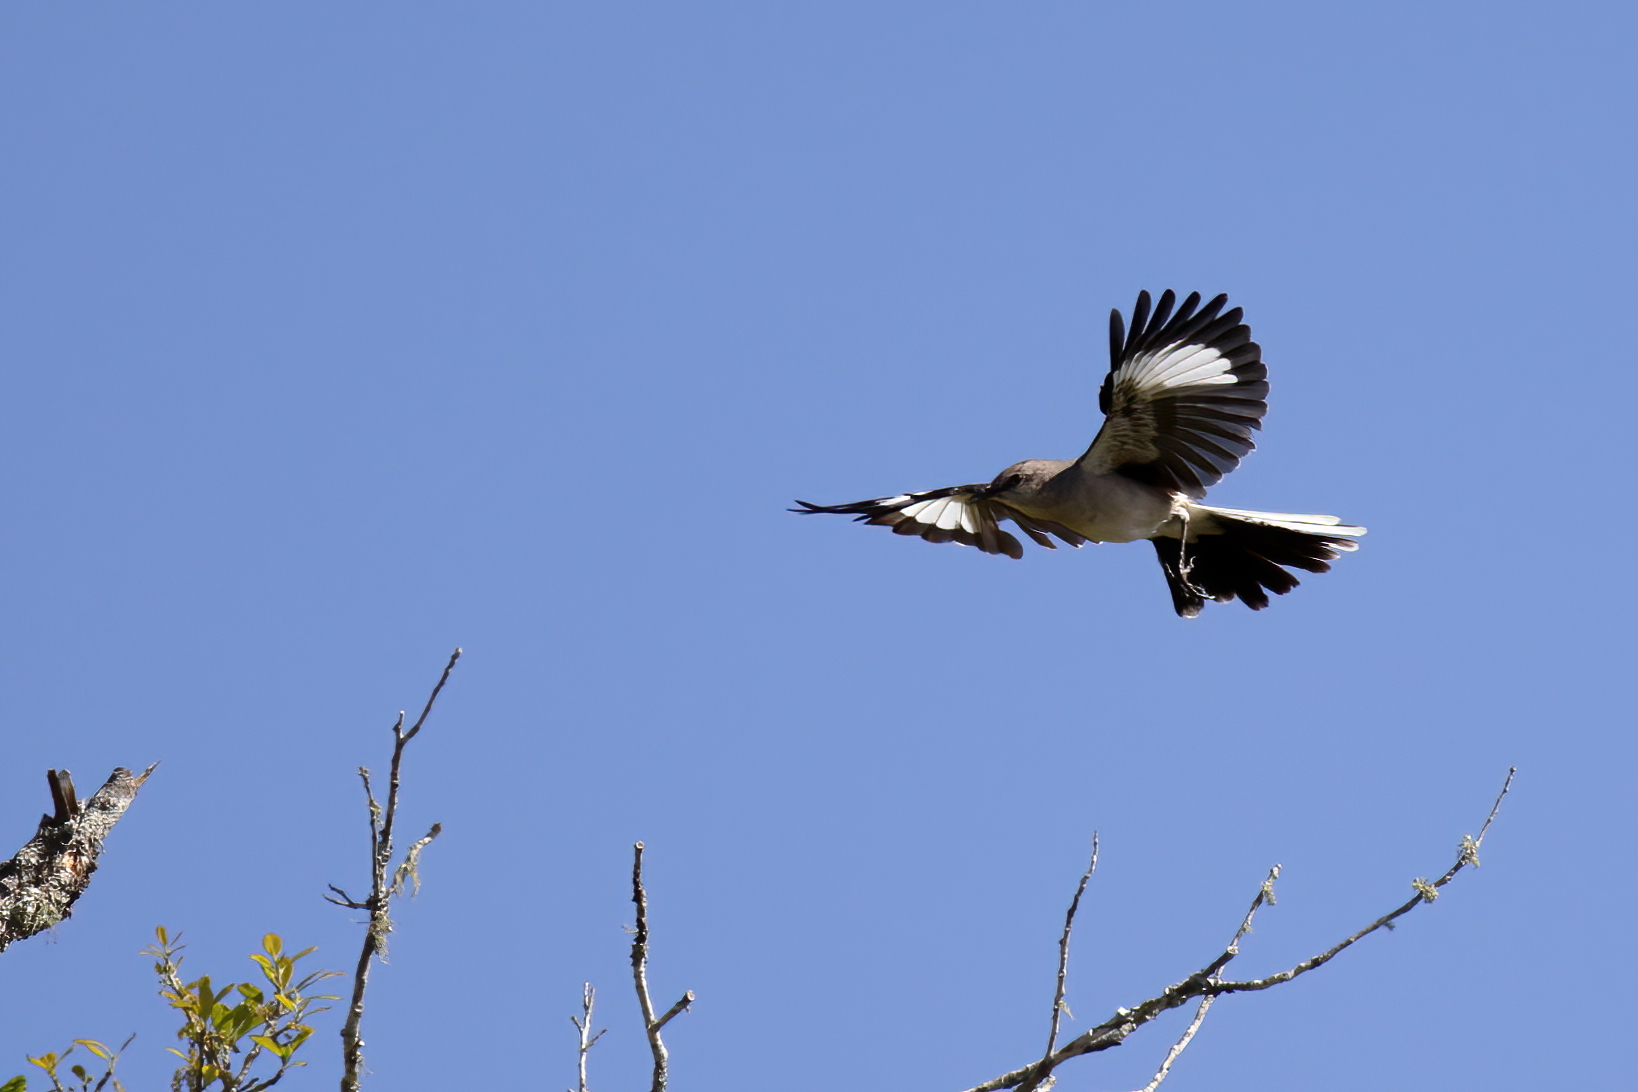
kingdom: Animalia
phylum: Chordata
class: Aves
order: Passeriformes
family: Mimidae
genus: Mimus
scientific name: Mimus polyglottos
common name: Northern mockingbird
